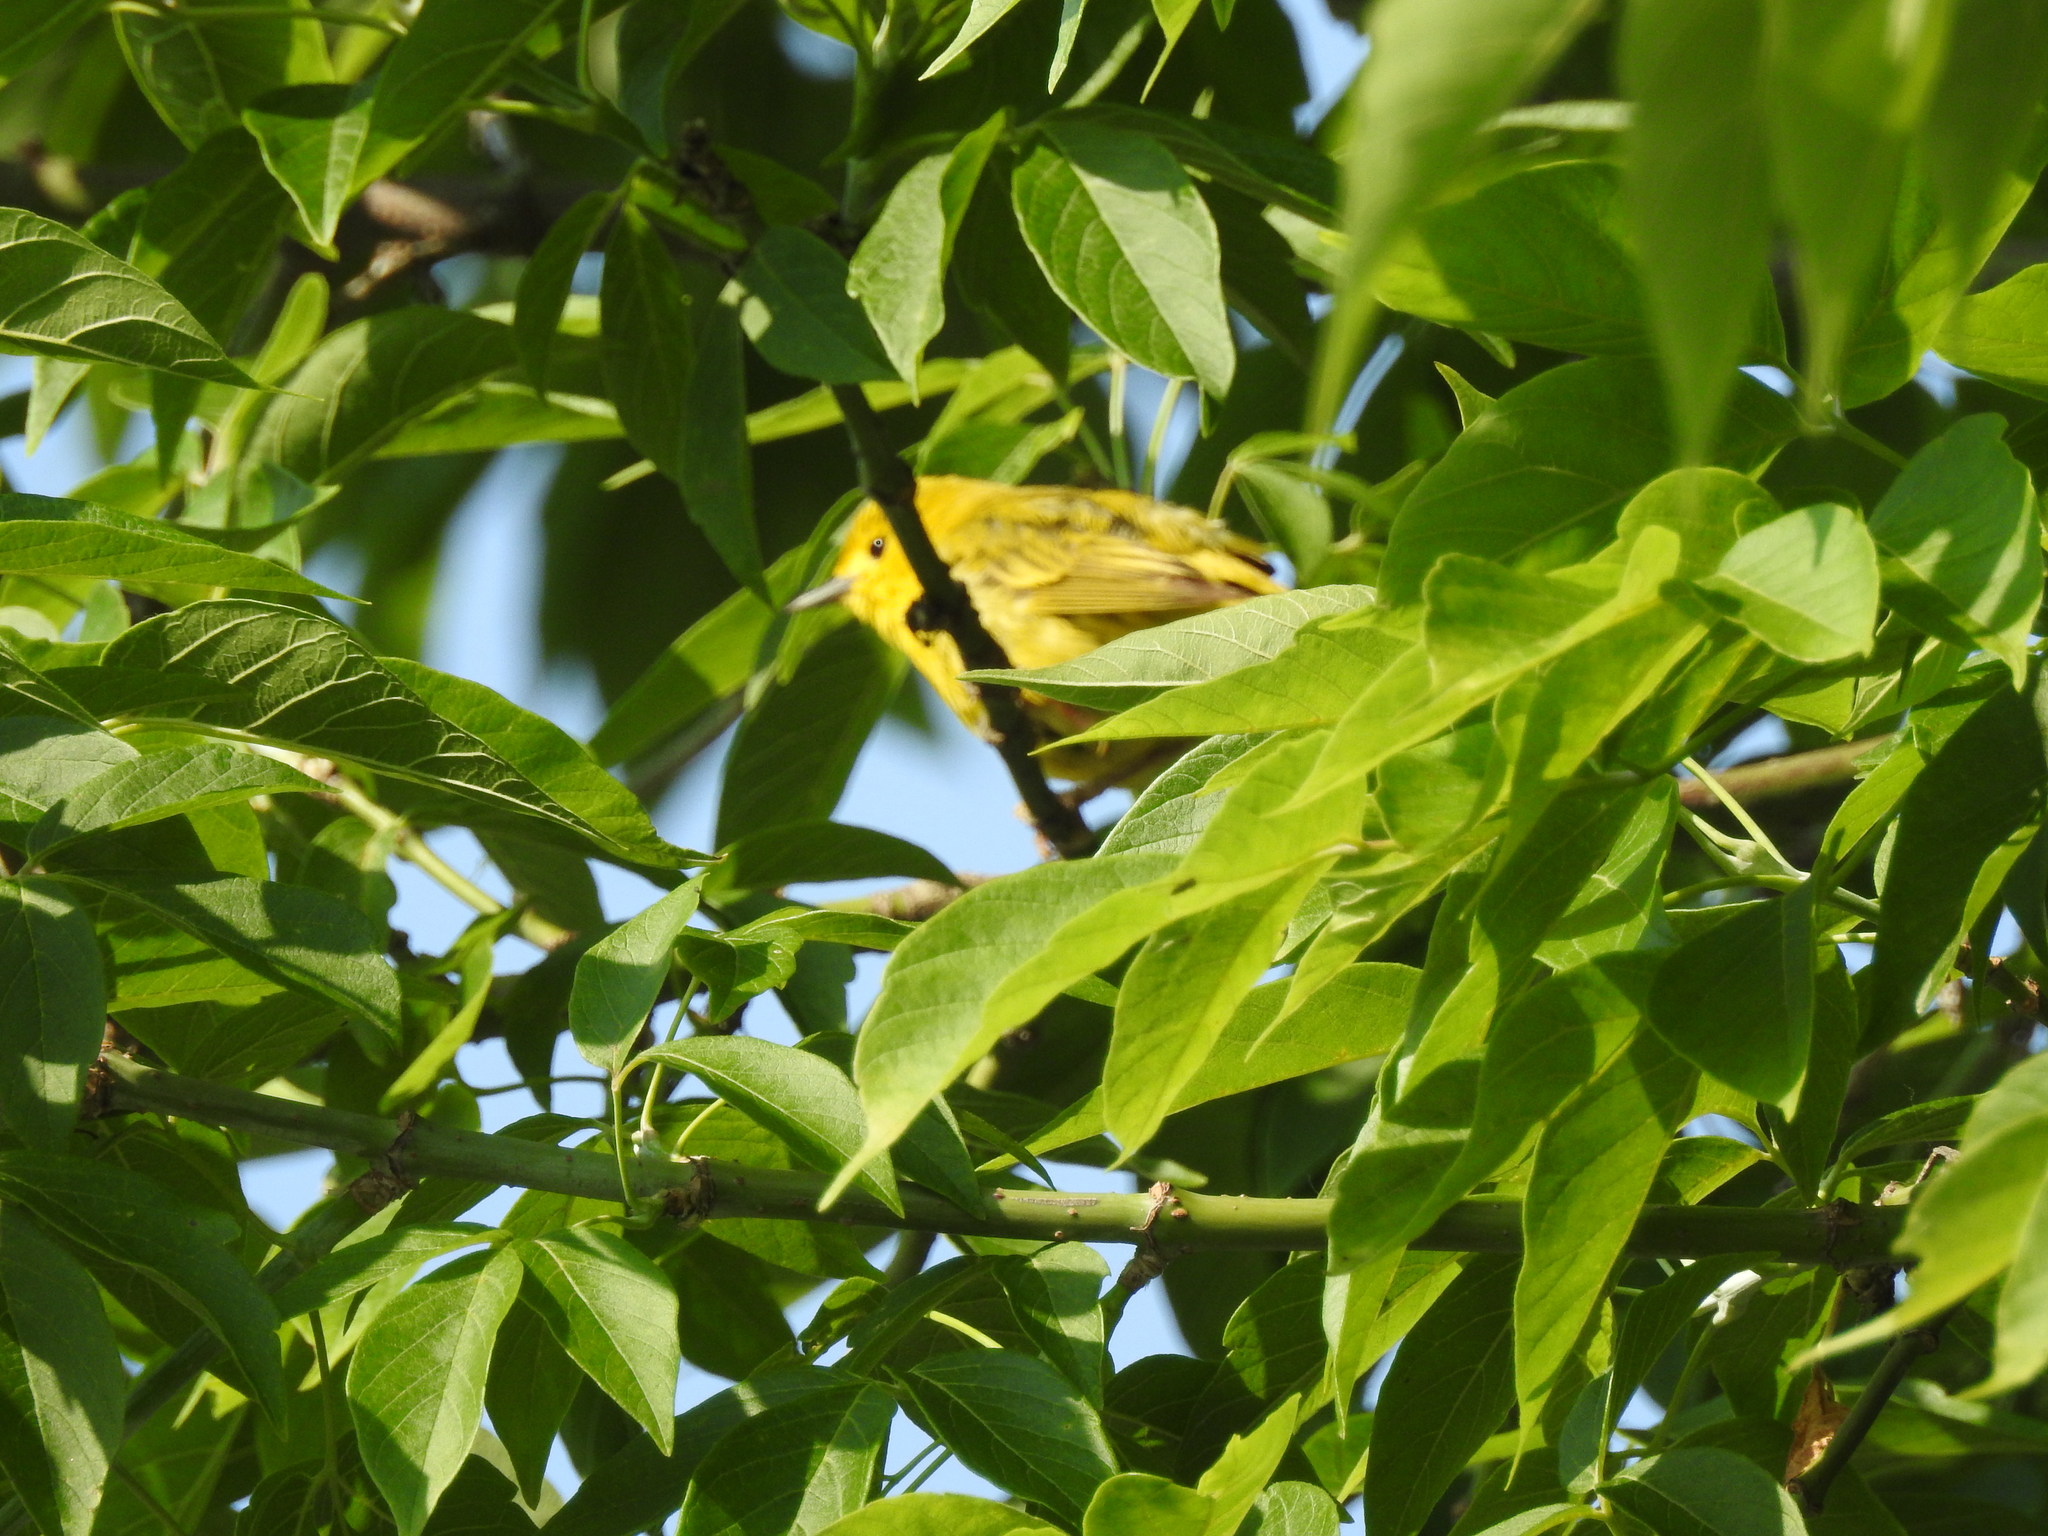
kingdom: Animalia
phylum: Chordata
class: Aves
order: Passeriformes
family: Parulidae
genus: Setophaga
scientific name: Setophaga petechia
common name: Yellow warbler
